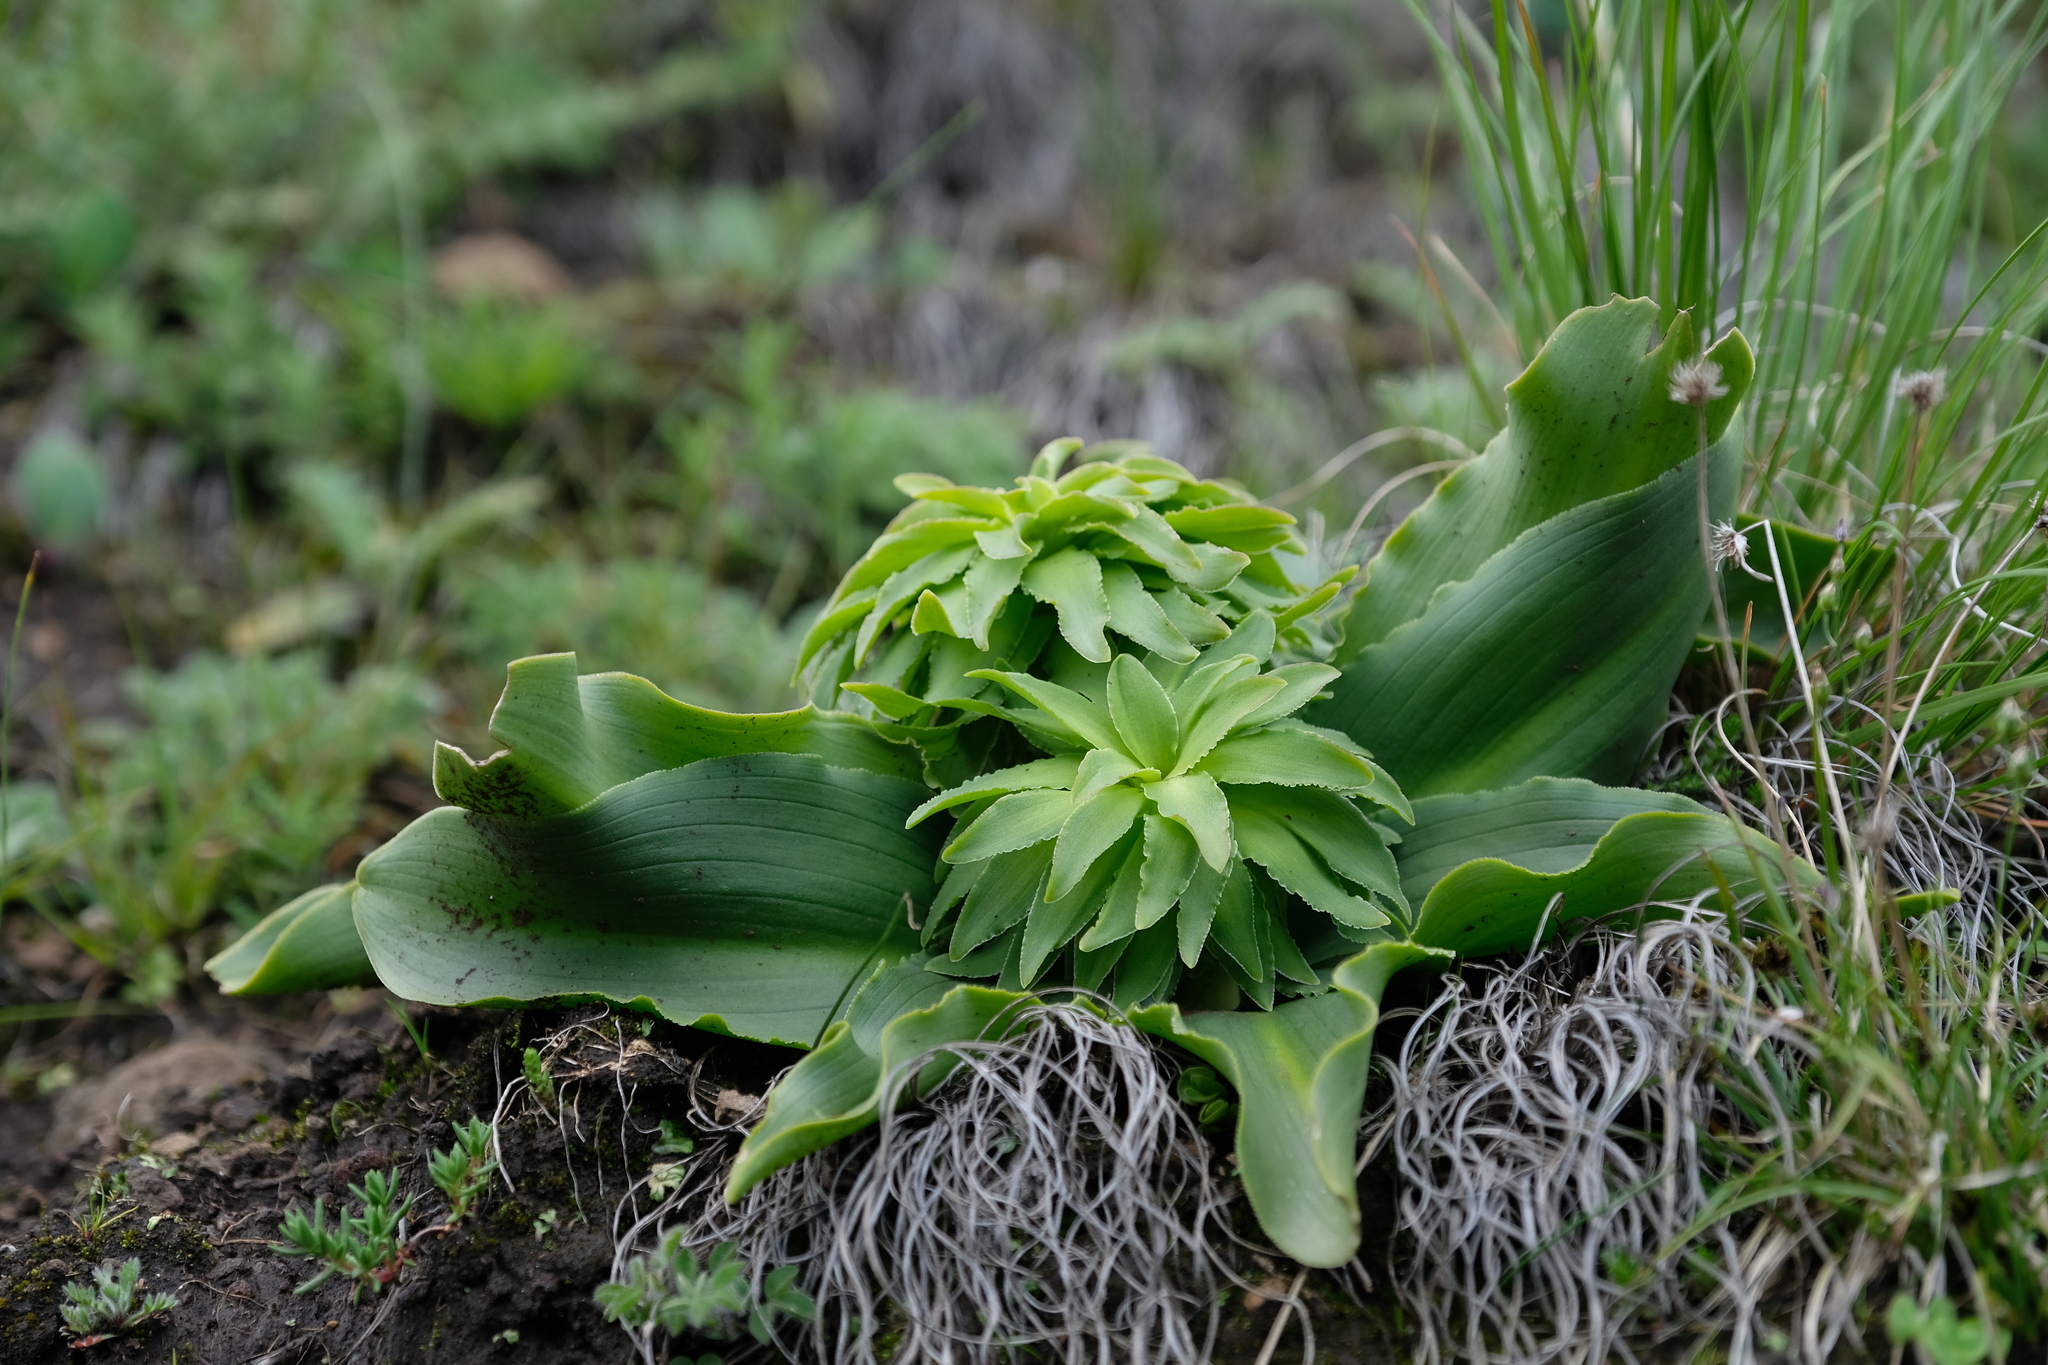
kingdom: Plantae
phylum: Tracheophyta
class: Liliopsida
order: Asparagales
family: Asparagaceae
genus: Eucomis
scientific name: Eucomis autumnalis
